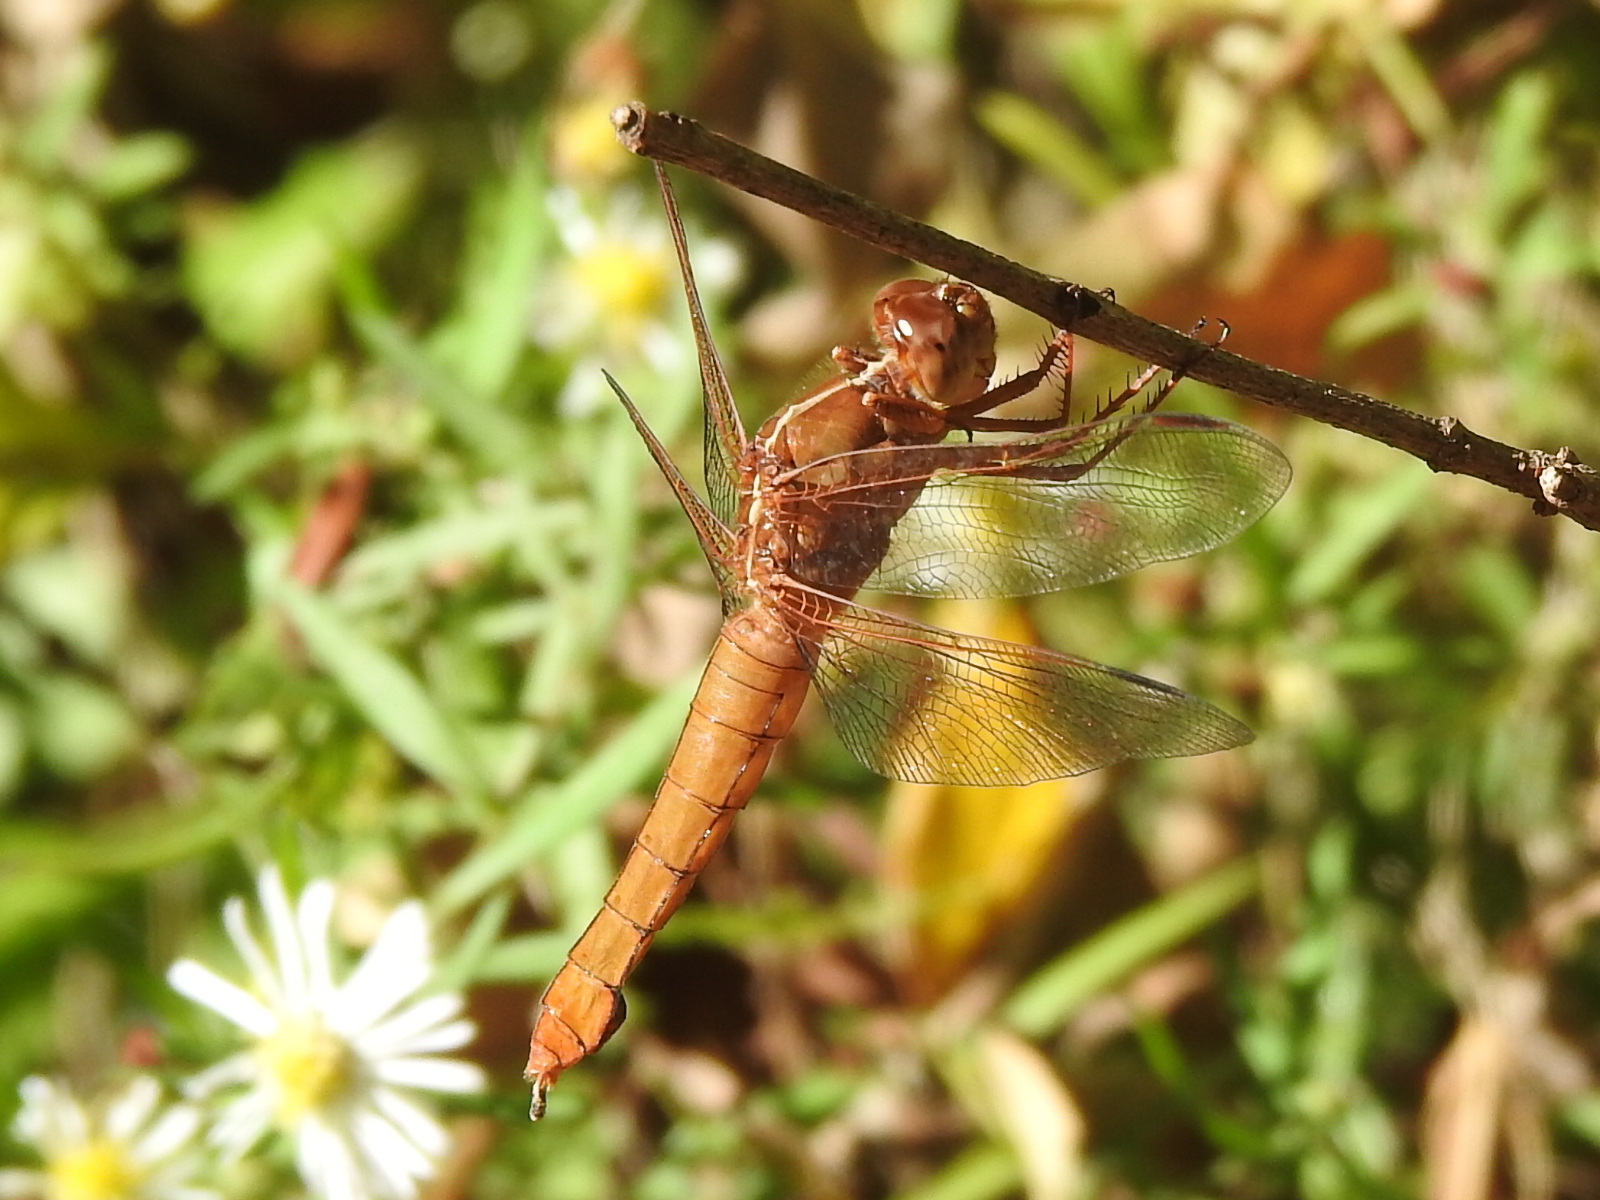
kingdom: Animalia
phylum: Arthropoda
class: Insecta
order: Odonata
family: Libellulidae
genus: Libellula
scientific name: Libellula croceipennis
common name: Neon skimmer
